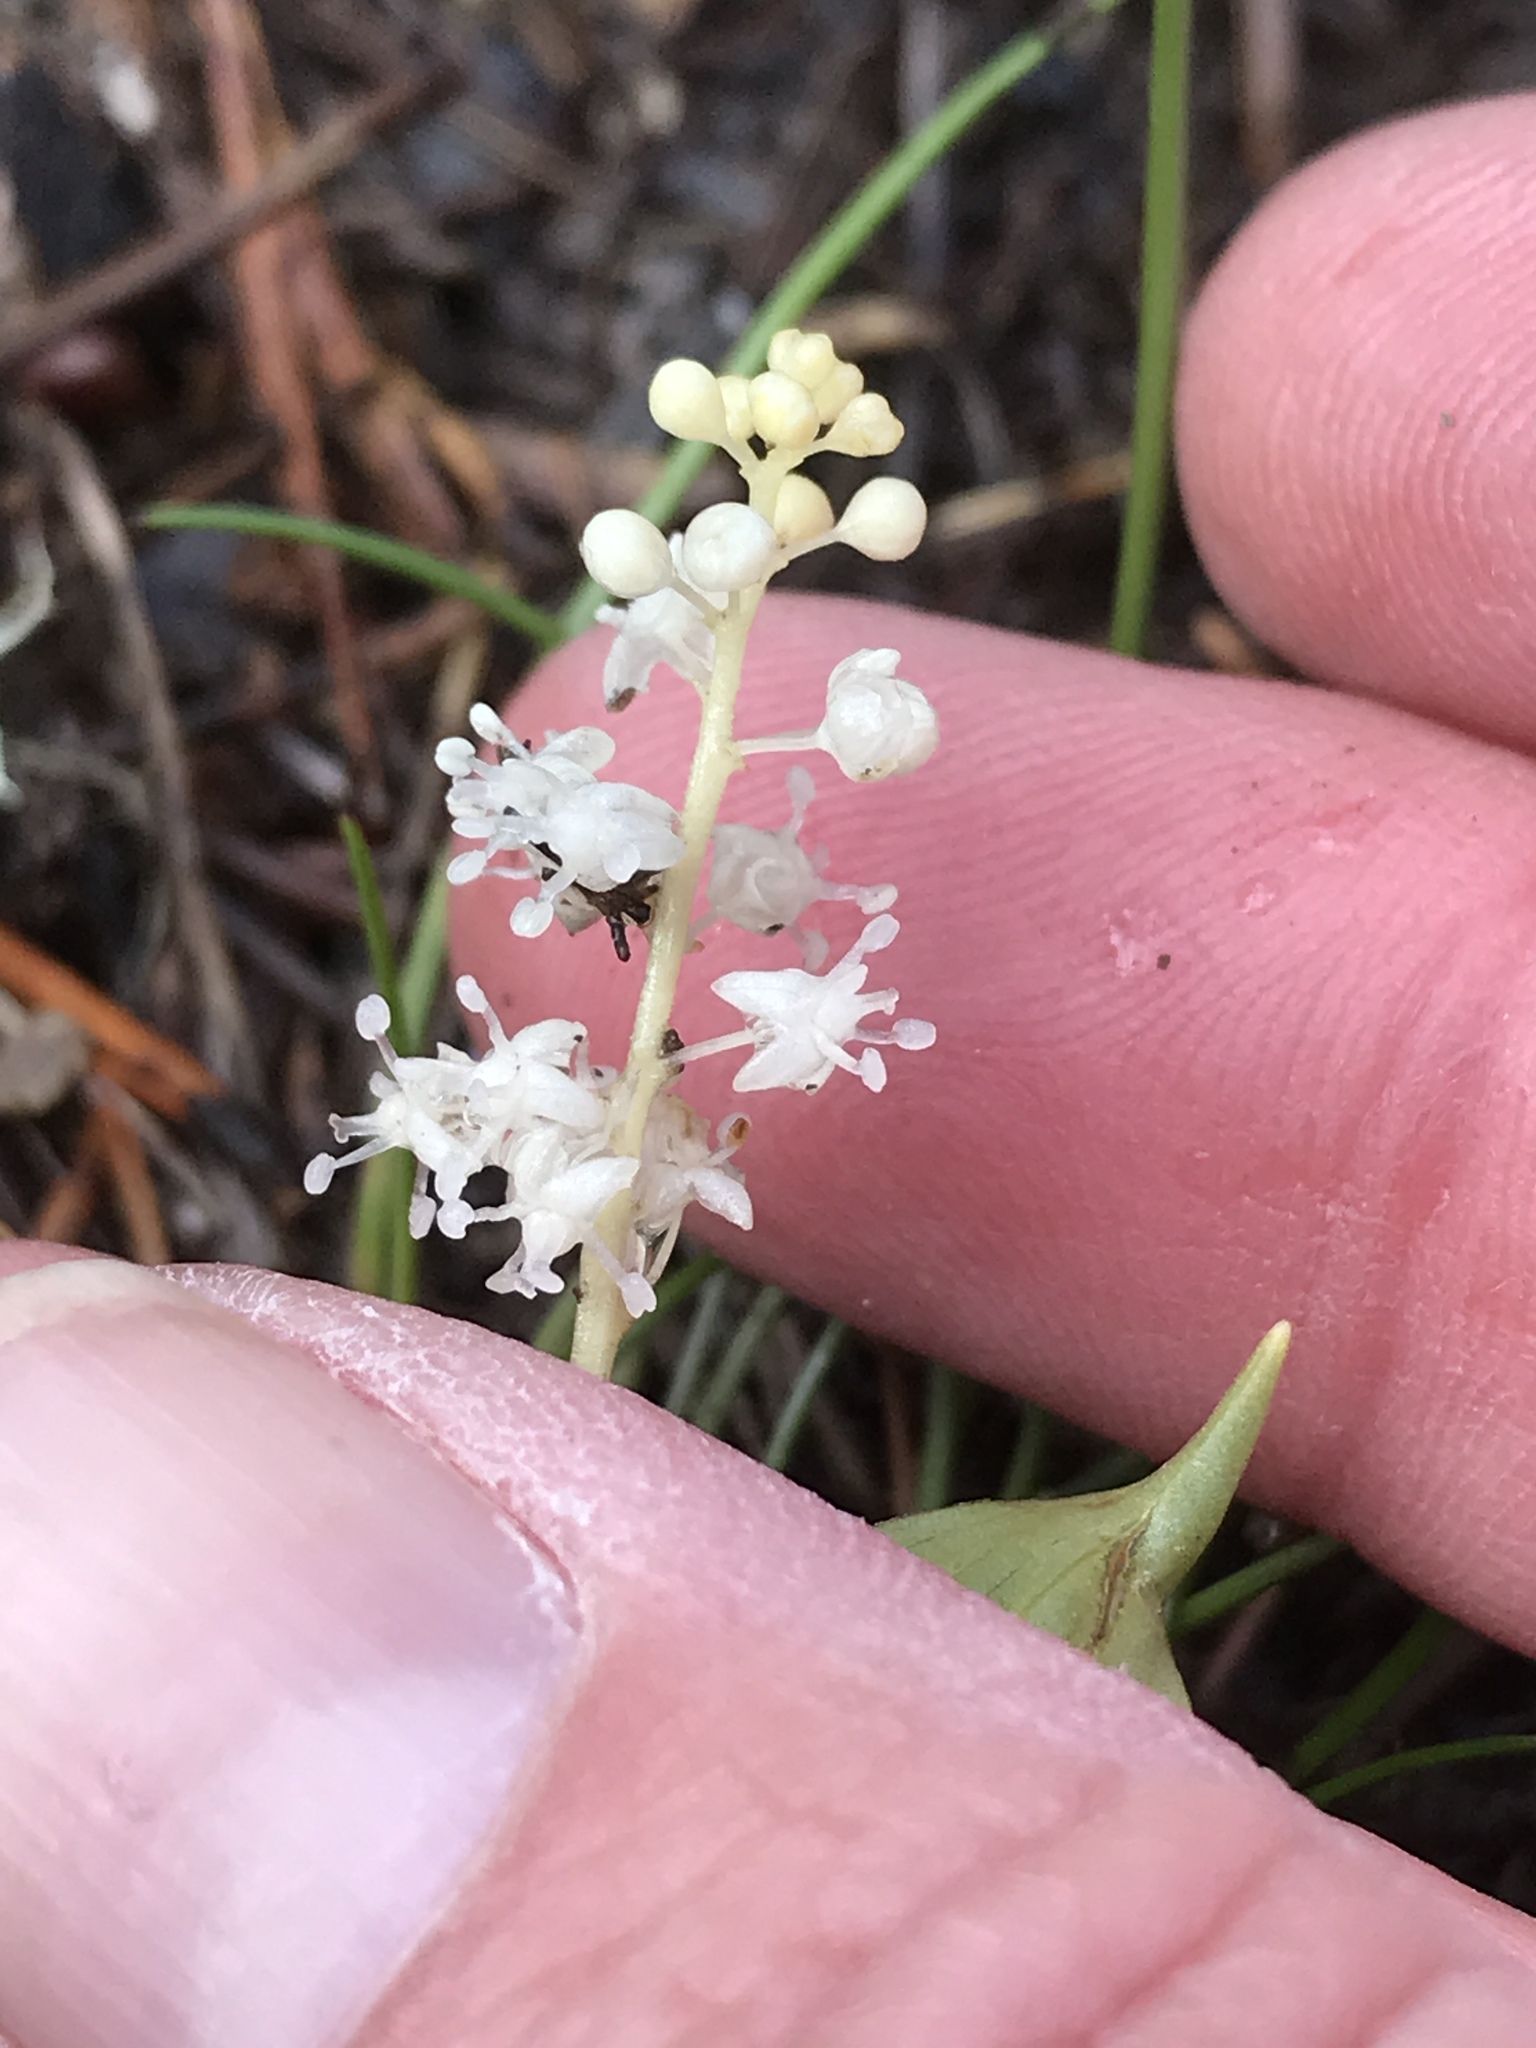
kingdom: Plantae
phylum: Tracheophyta
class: Liliopsida
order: Asparagales
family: Asparagaceae
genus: Maianthemum
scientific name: Maianthemum bifolium
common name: May lily
